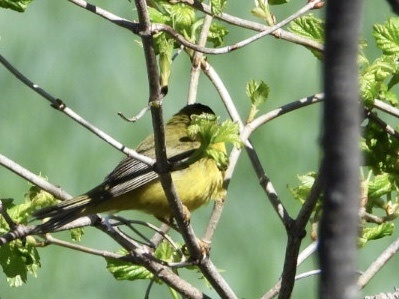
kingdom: Animalia
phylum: Chordata
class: Aves
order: Passeriformes
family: Parulidae
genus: Cardellina
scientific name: Cardellina pusilla
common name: Wilson's warbler
